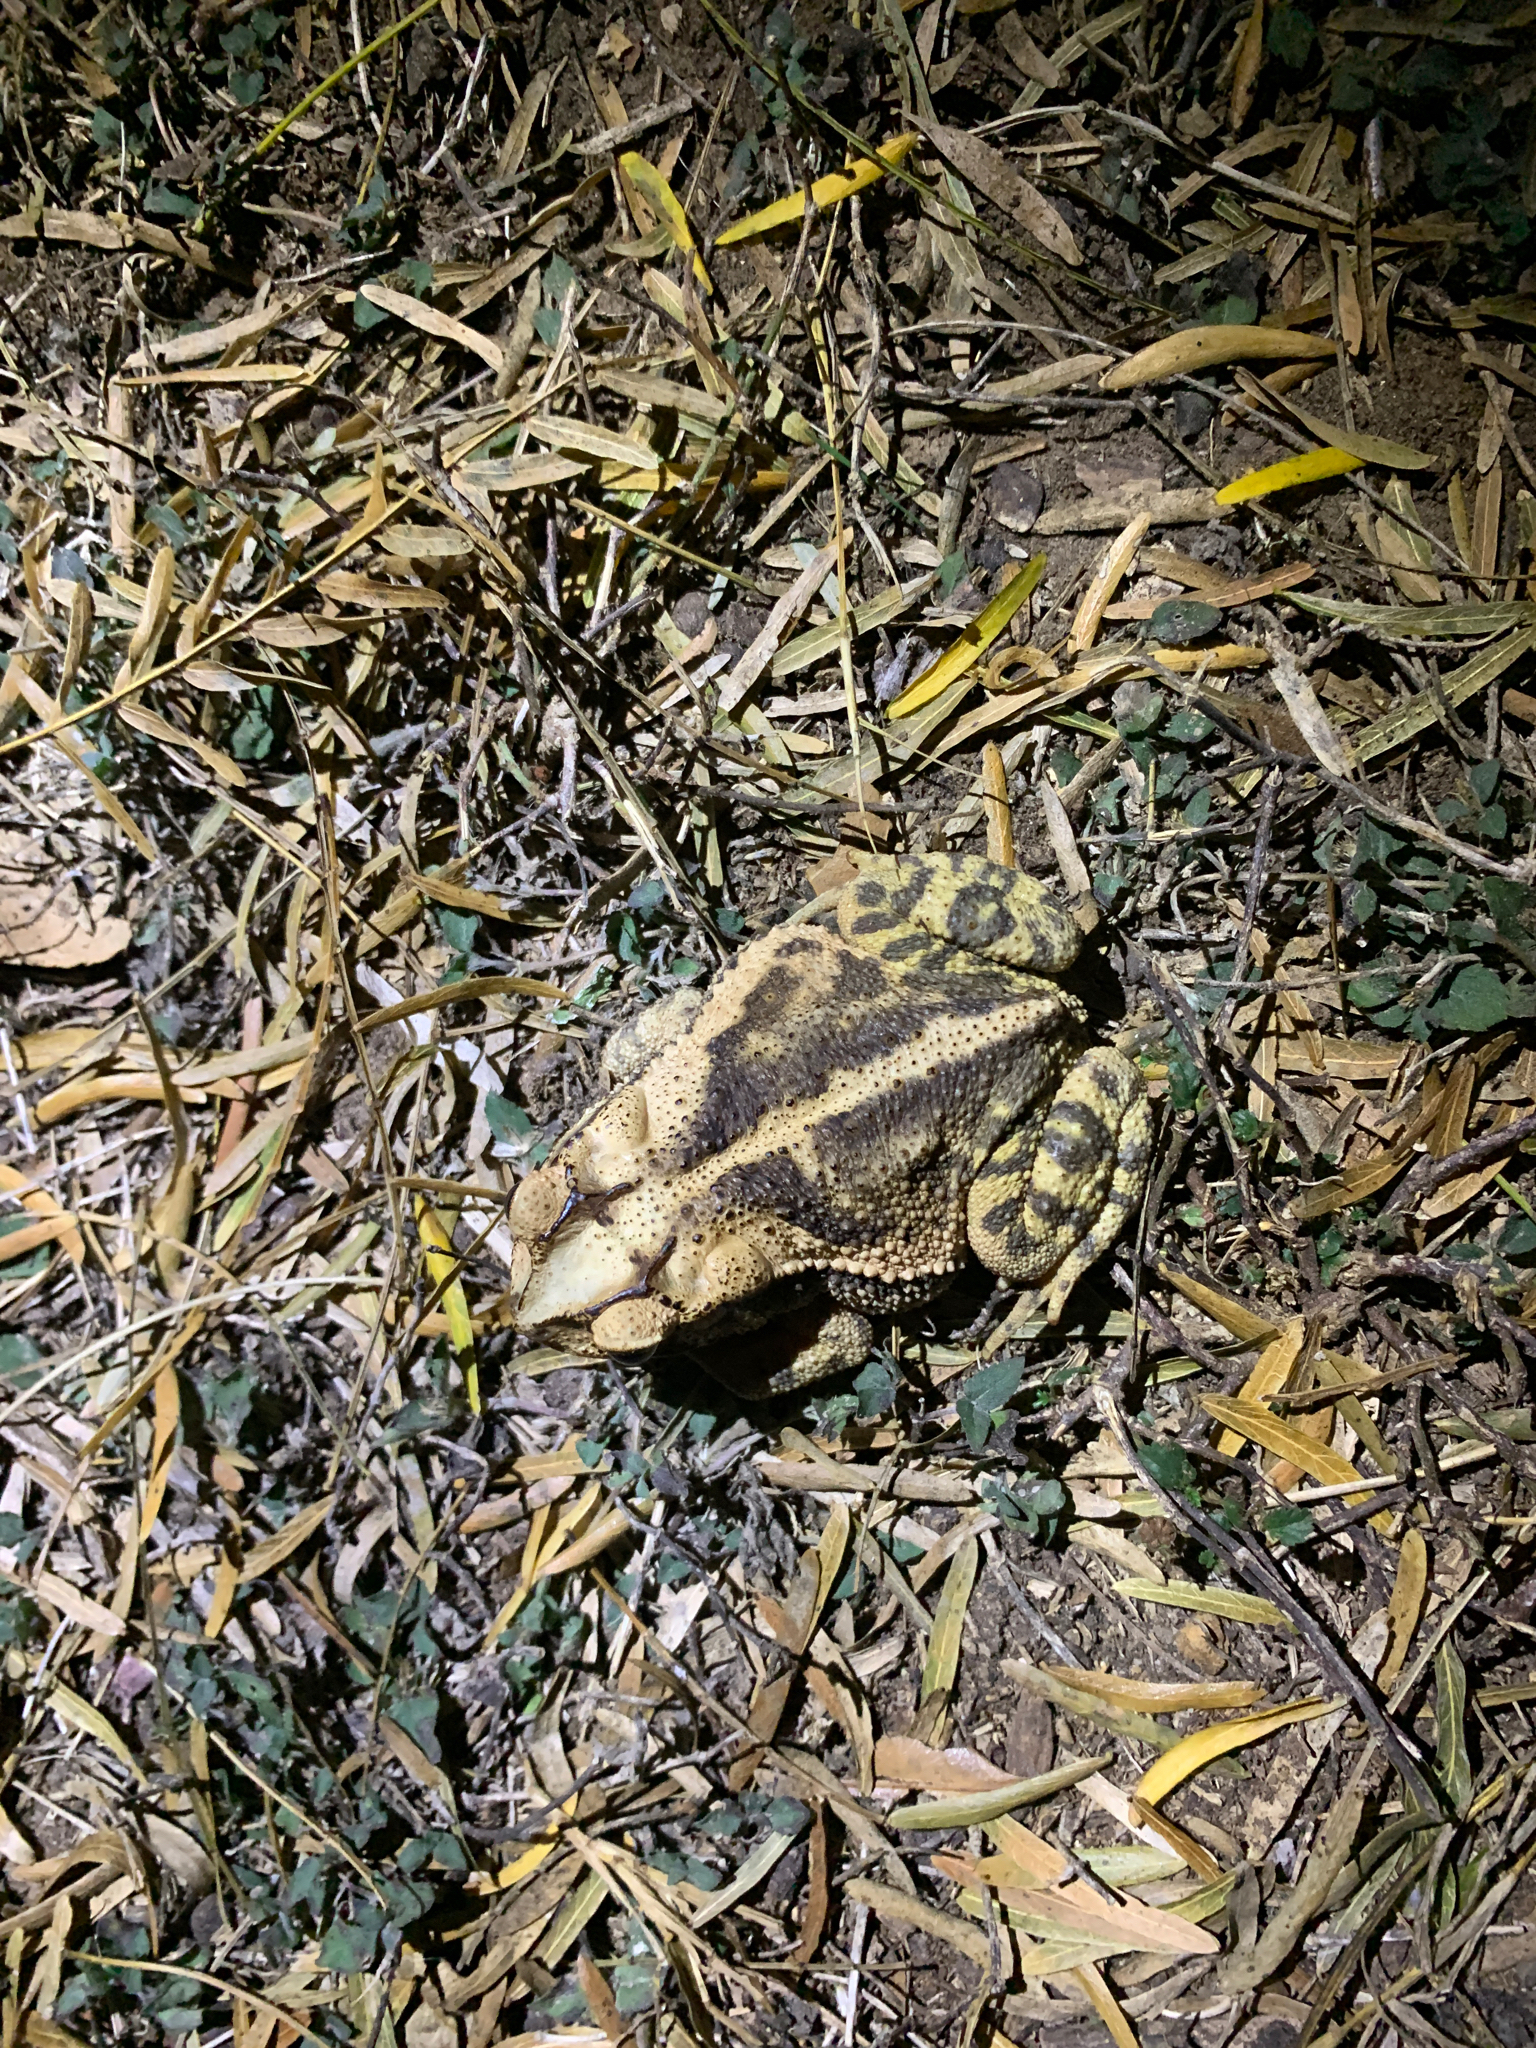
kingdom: Animalia
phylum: Chordata
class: Amphibia
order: Anura
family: Bufonidae
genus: Incilius
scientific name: Incilius nebulifer
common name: Gulf coast toad
